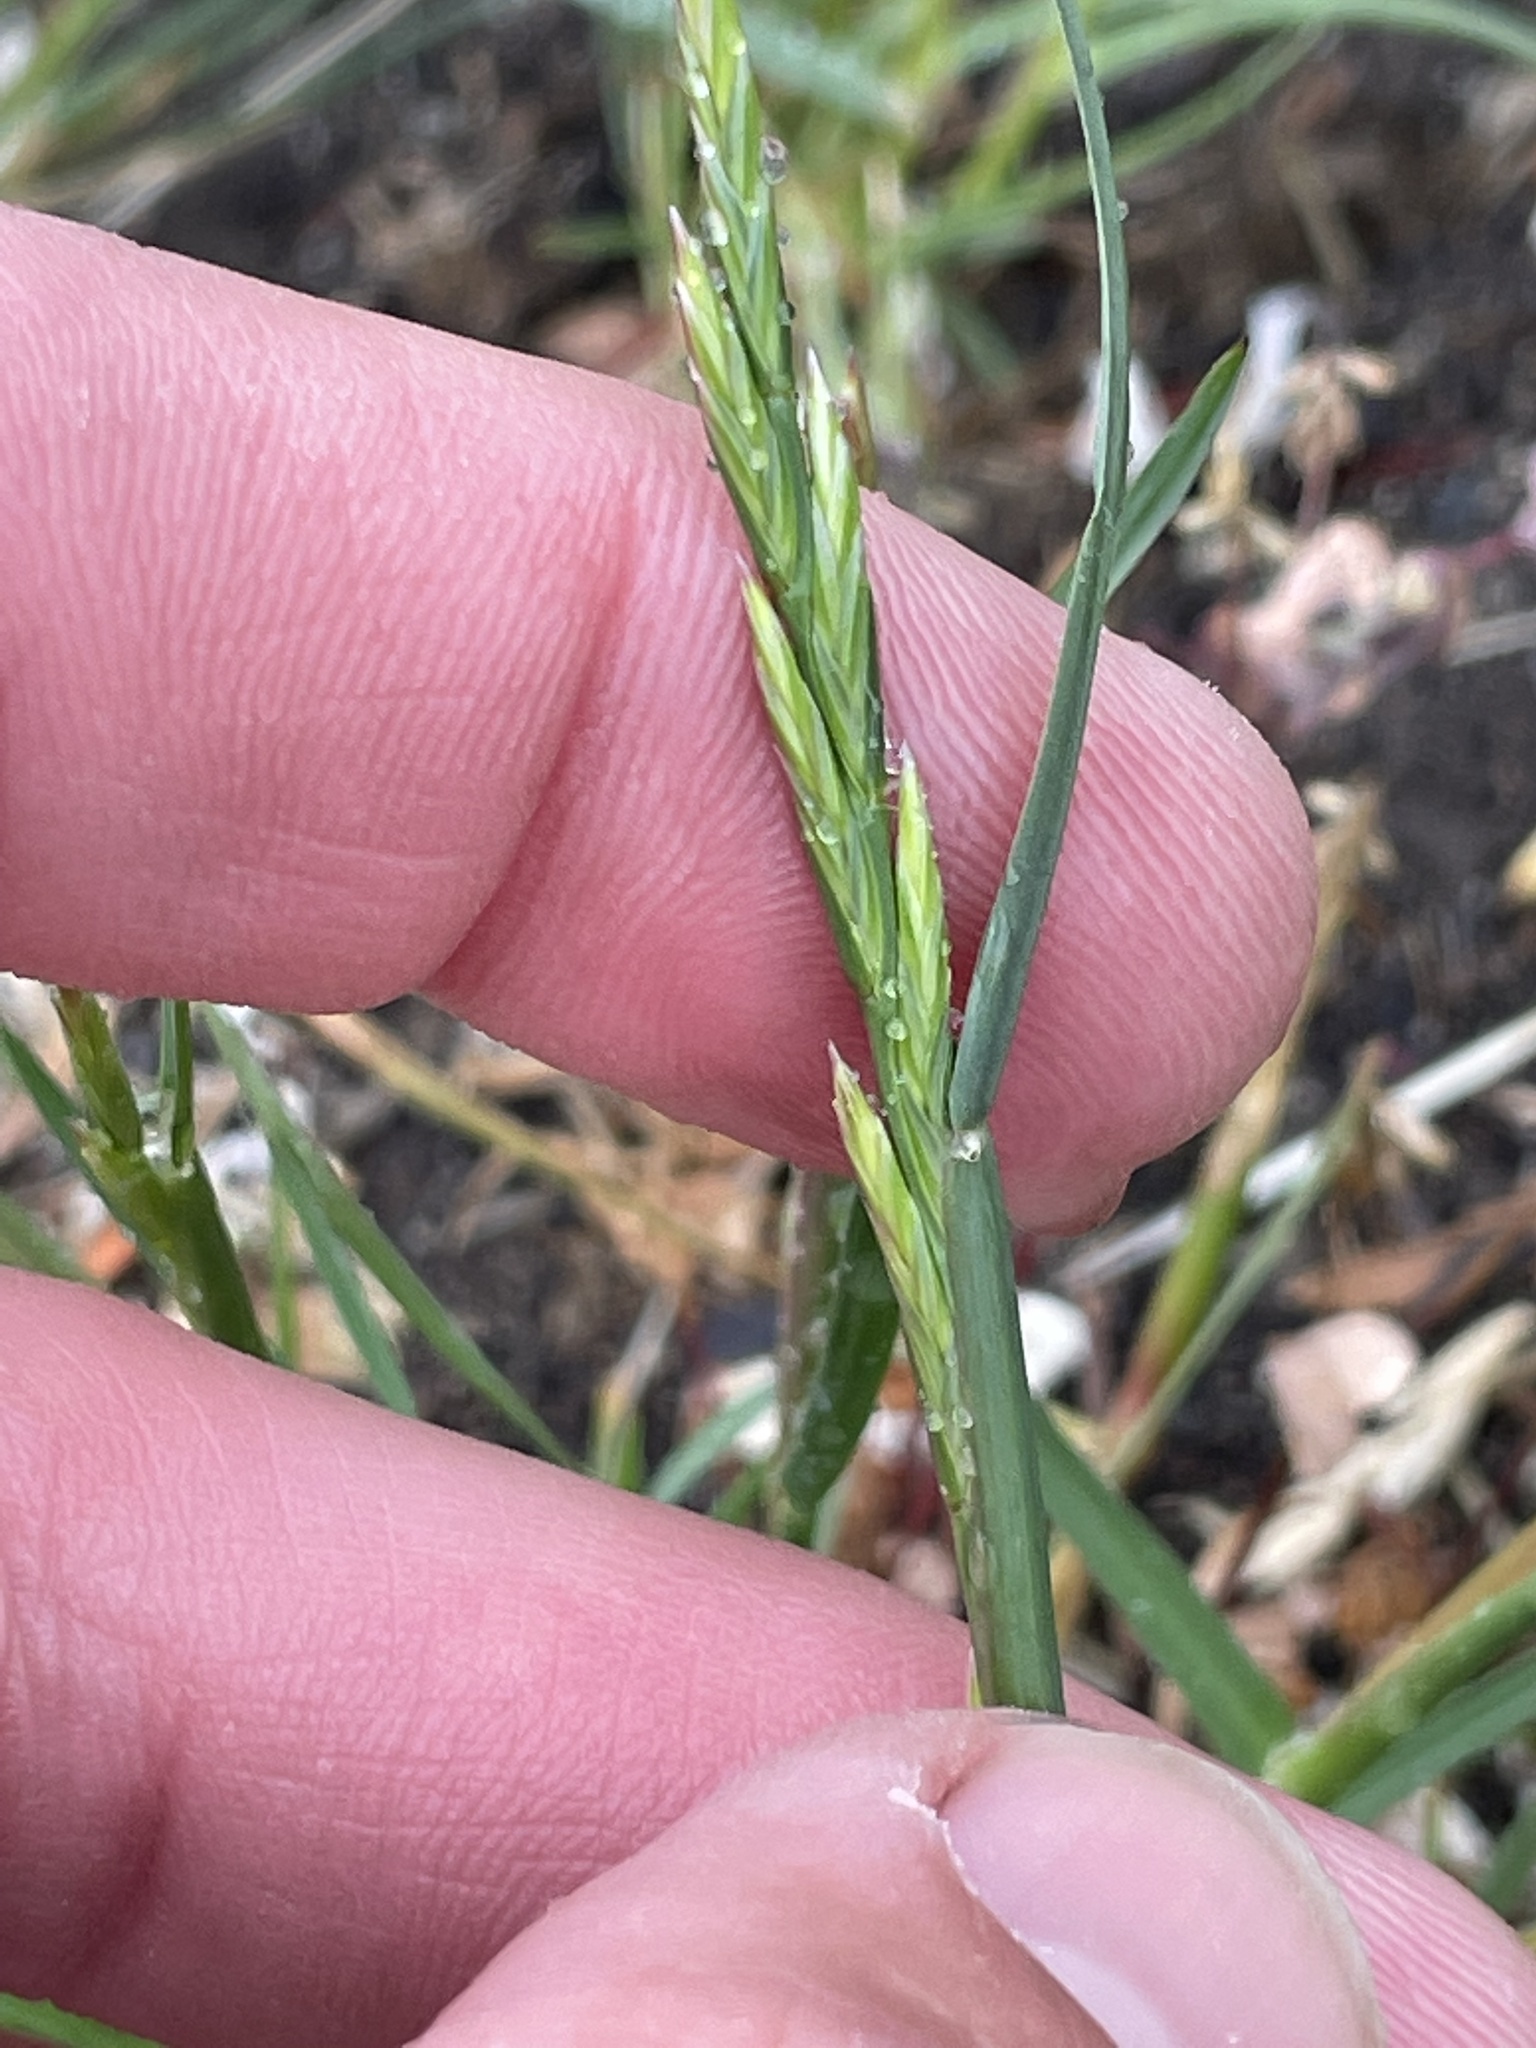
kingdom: Plantae
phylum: Tracheophyta
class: Liliopsida
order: Poales
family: Poaceae
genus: Lolium
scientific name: Lolium perenne
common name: Perennial ryegrass
